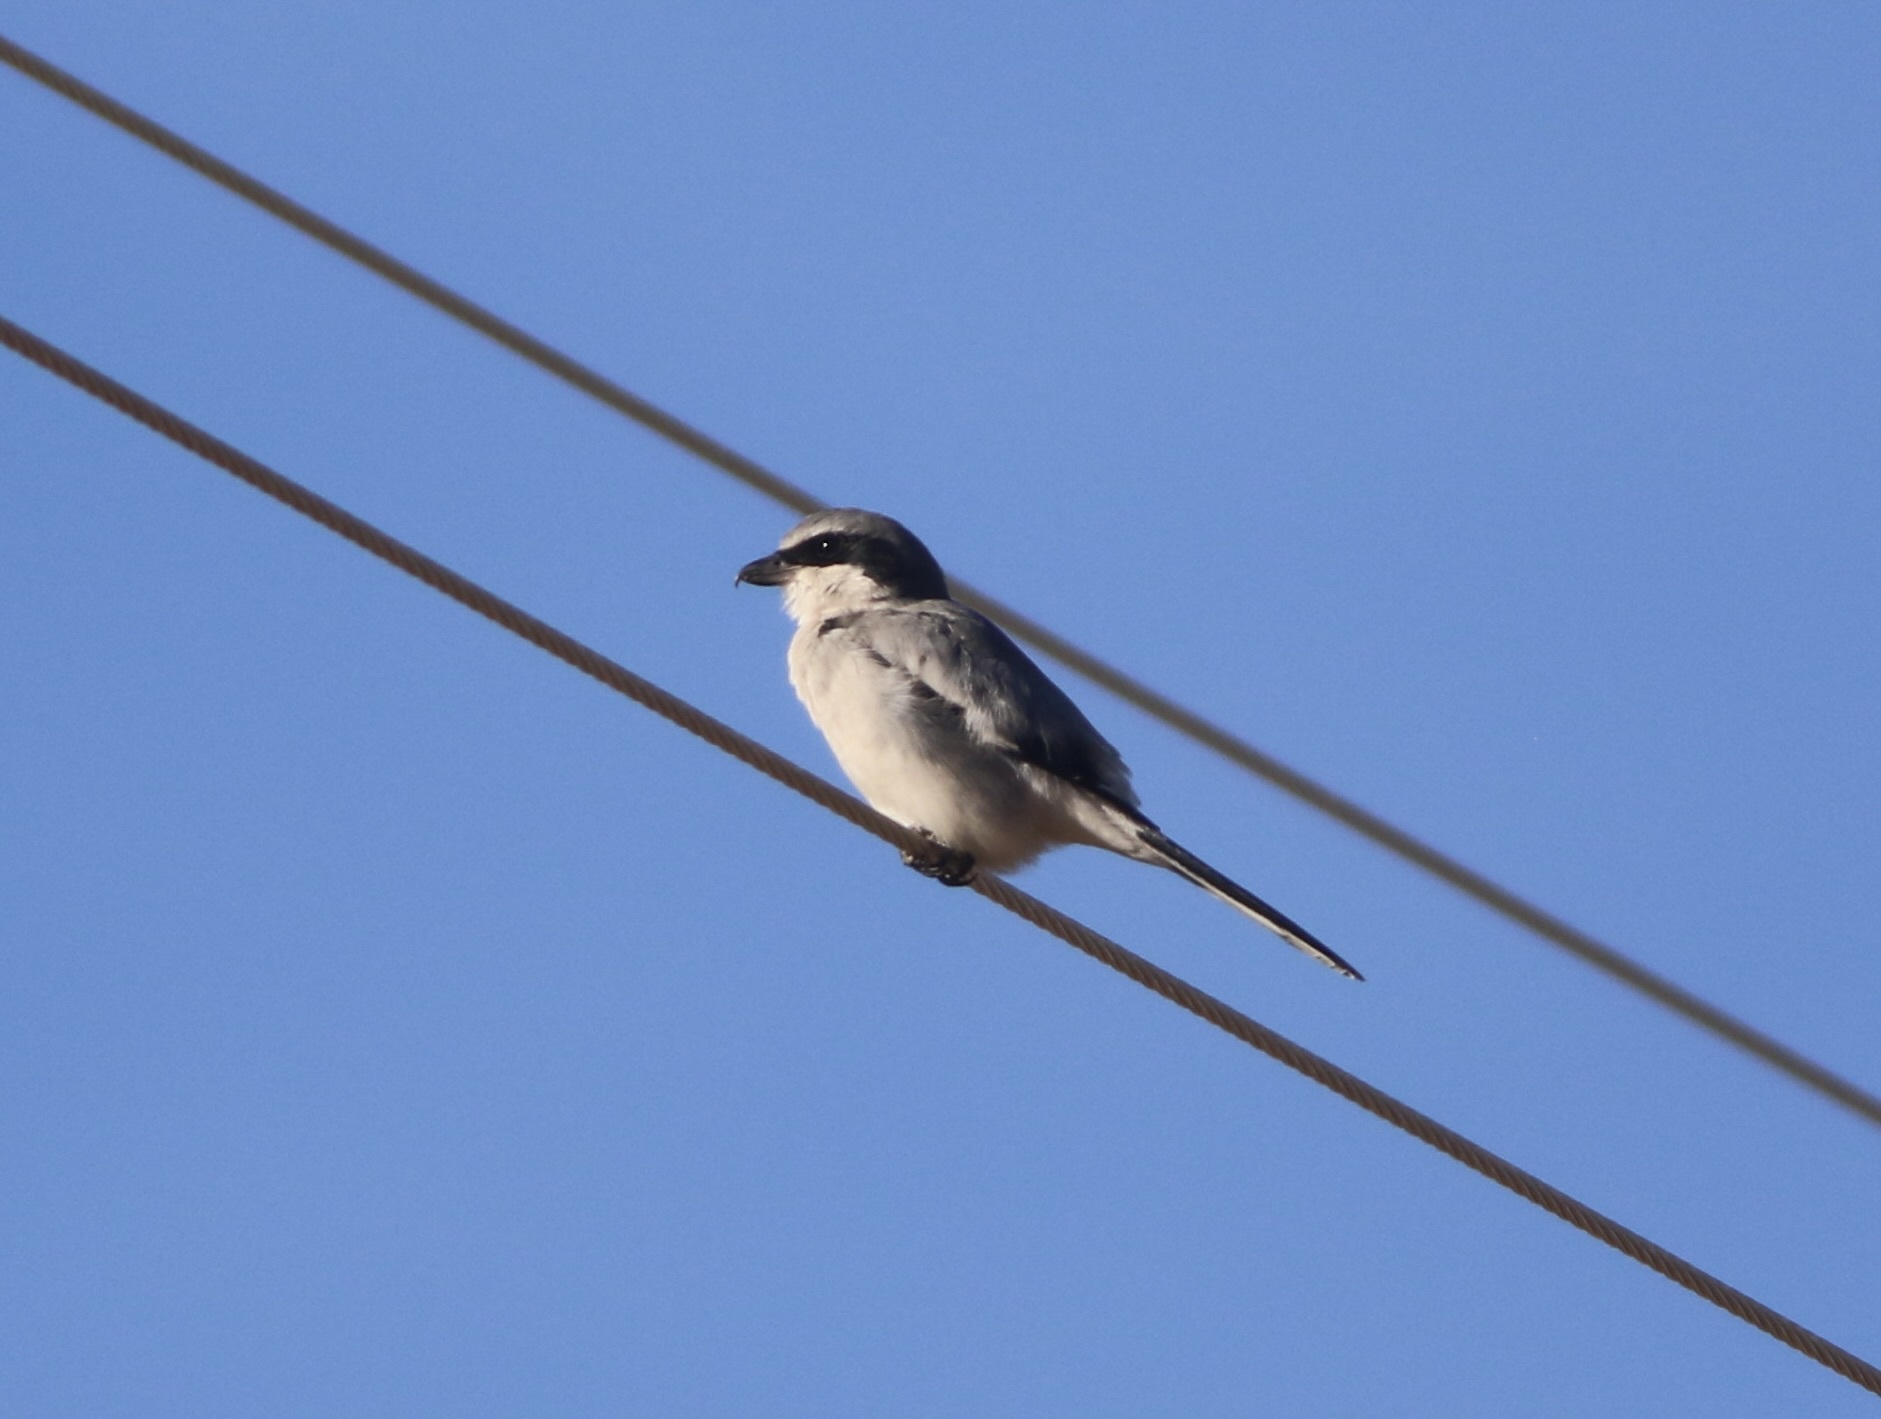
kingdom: Animalia
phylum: Chordata
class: Aves
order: Passeriformes
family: Laniidae
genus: Lanius
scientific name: Lanius ludovicianus
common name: Loggerhead shrike
